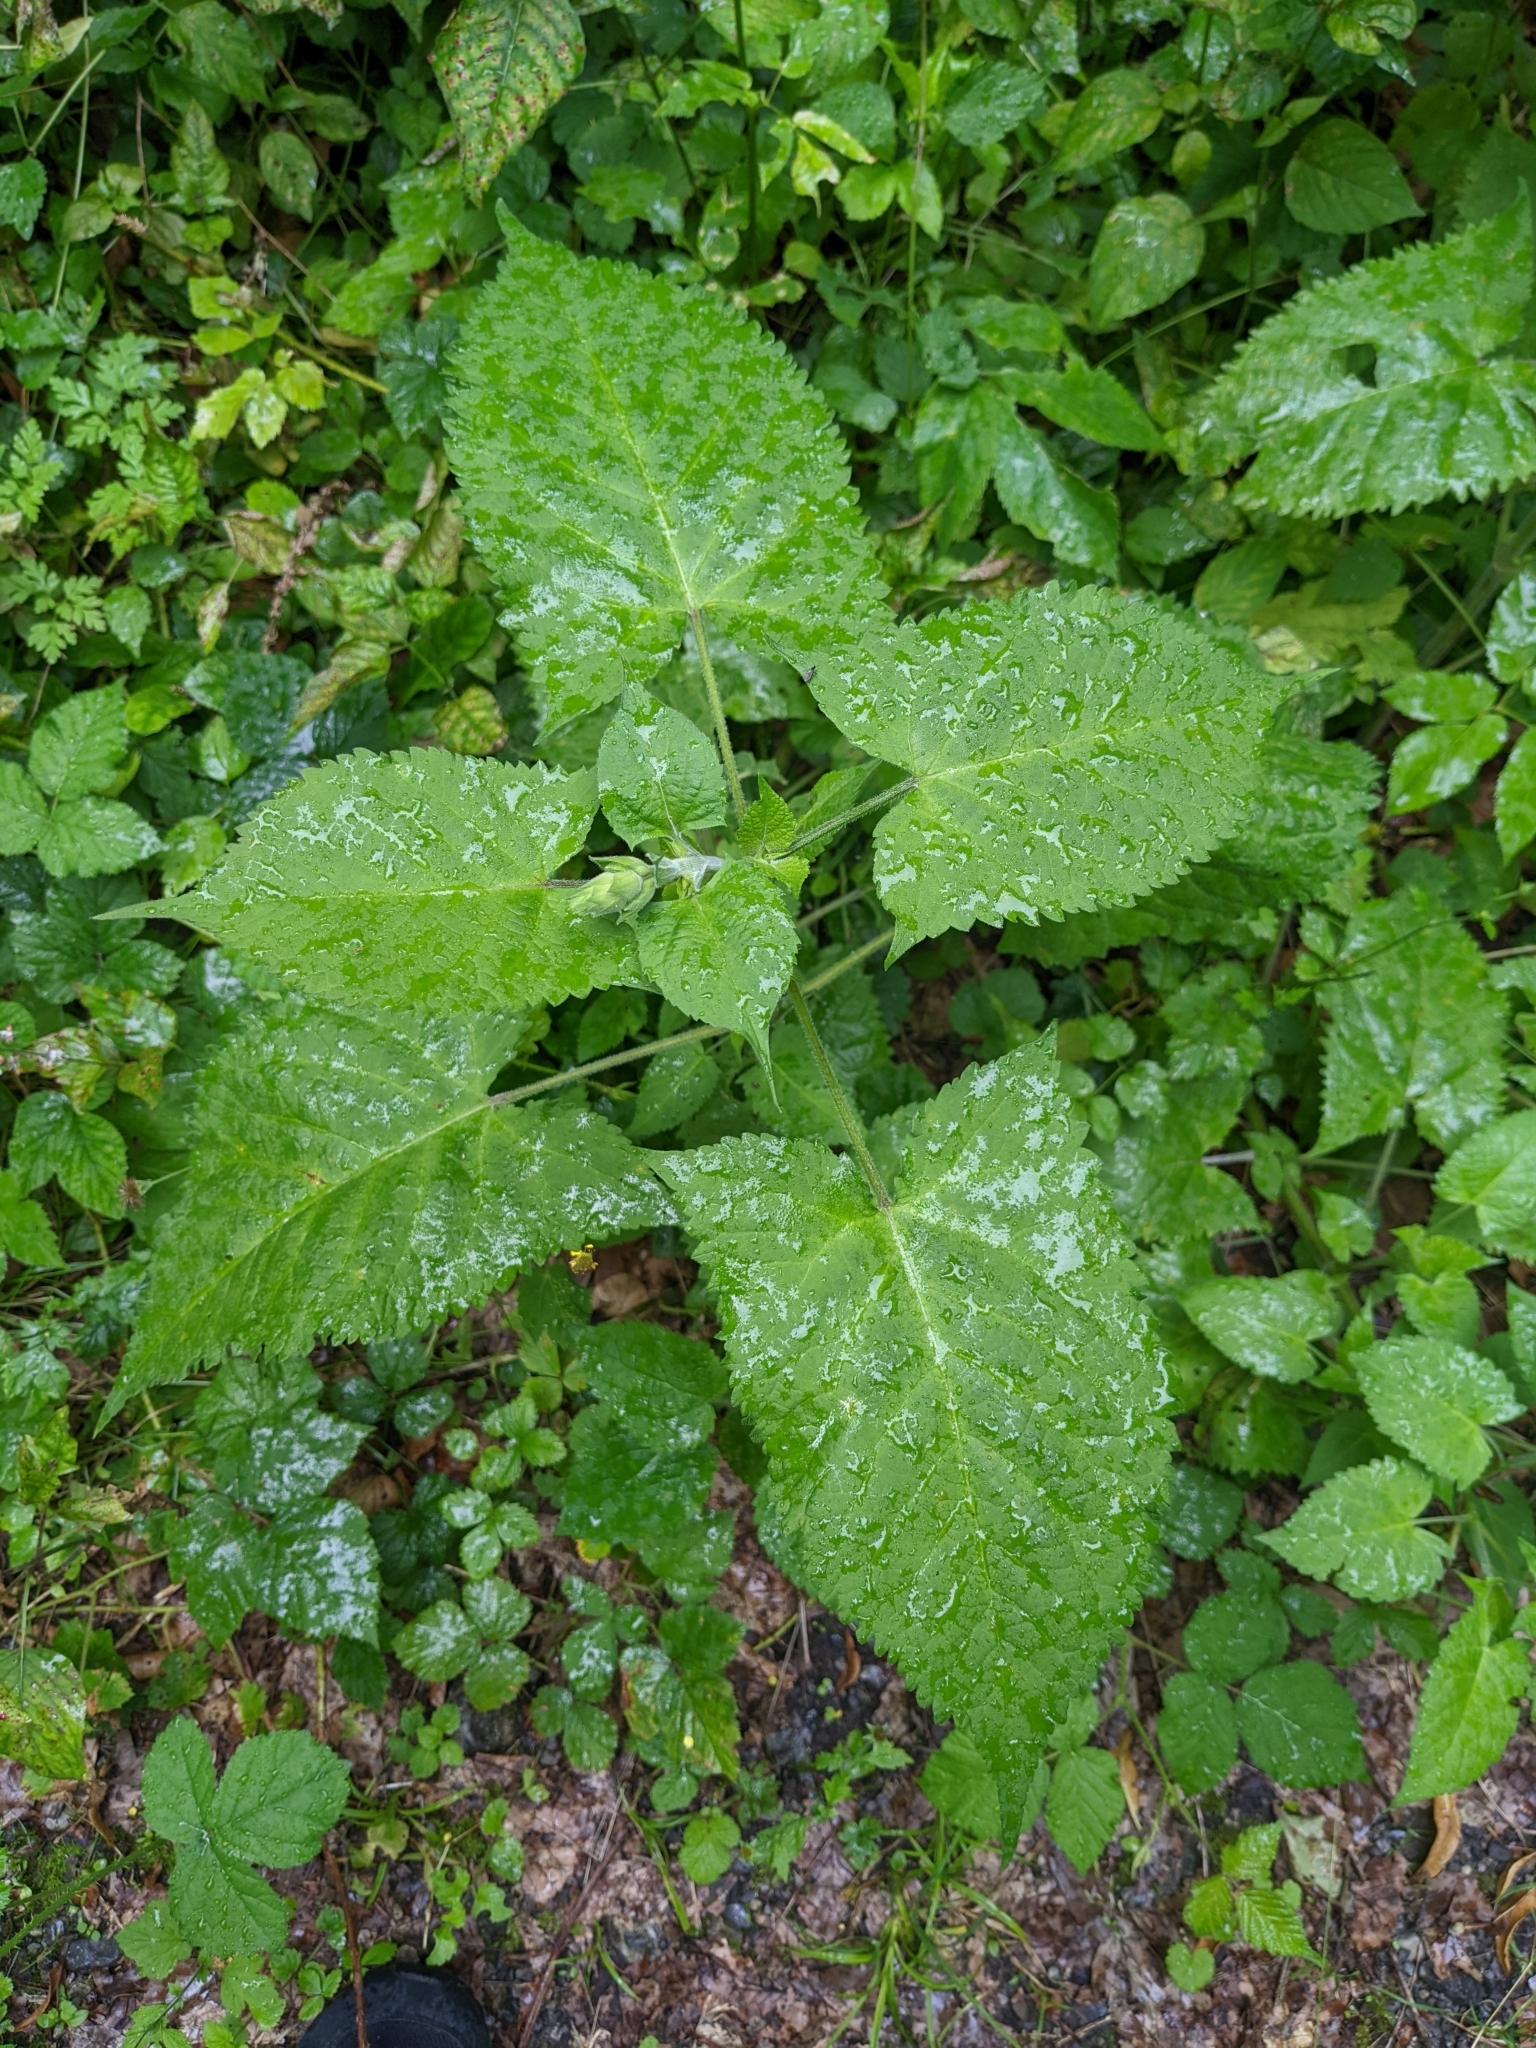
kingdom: Plantae
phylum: Tracheophyta
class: Magnoliopsida
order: Lamiales
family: Lamiaceae
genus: Salvia
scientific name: Salvia glutinosa
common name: Sticky clary
